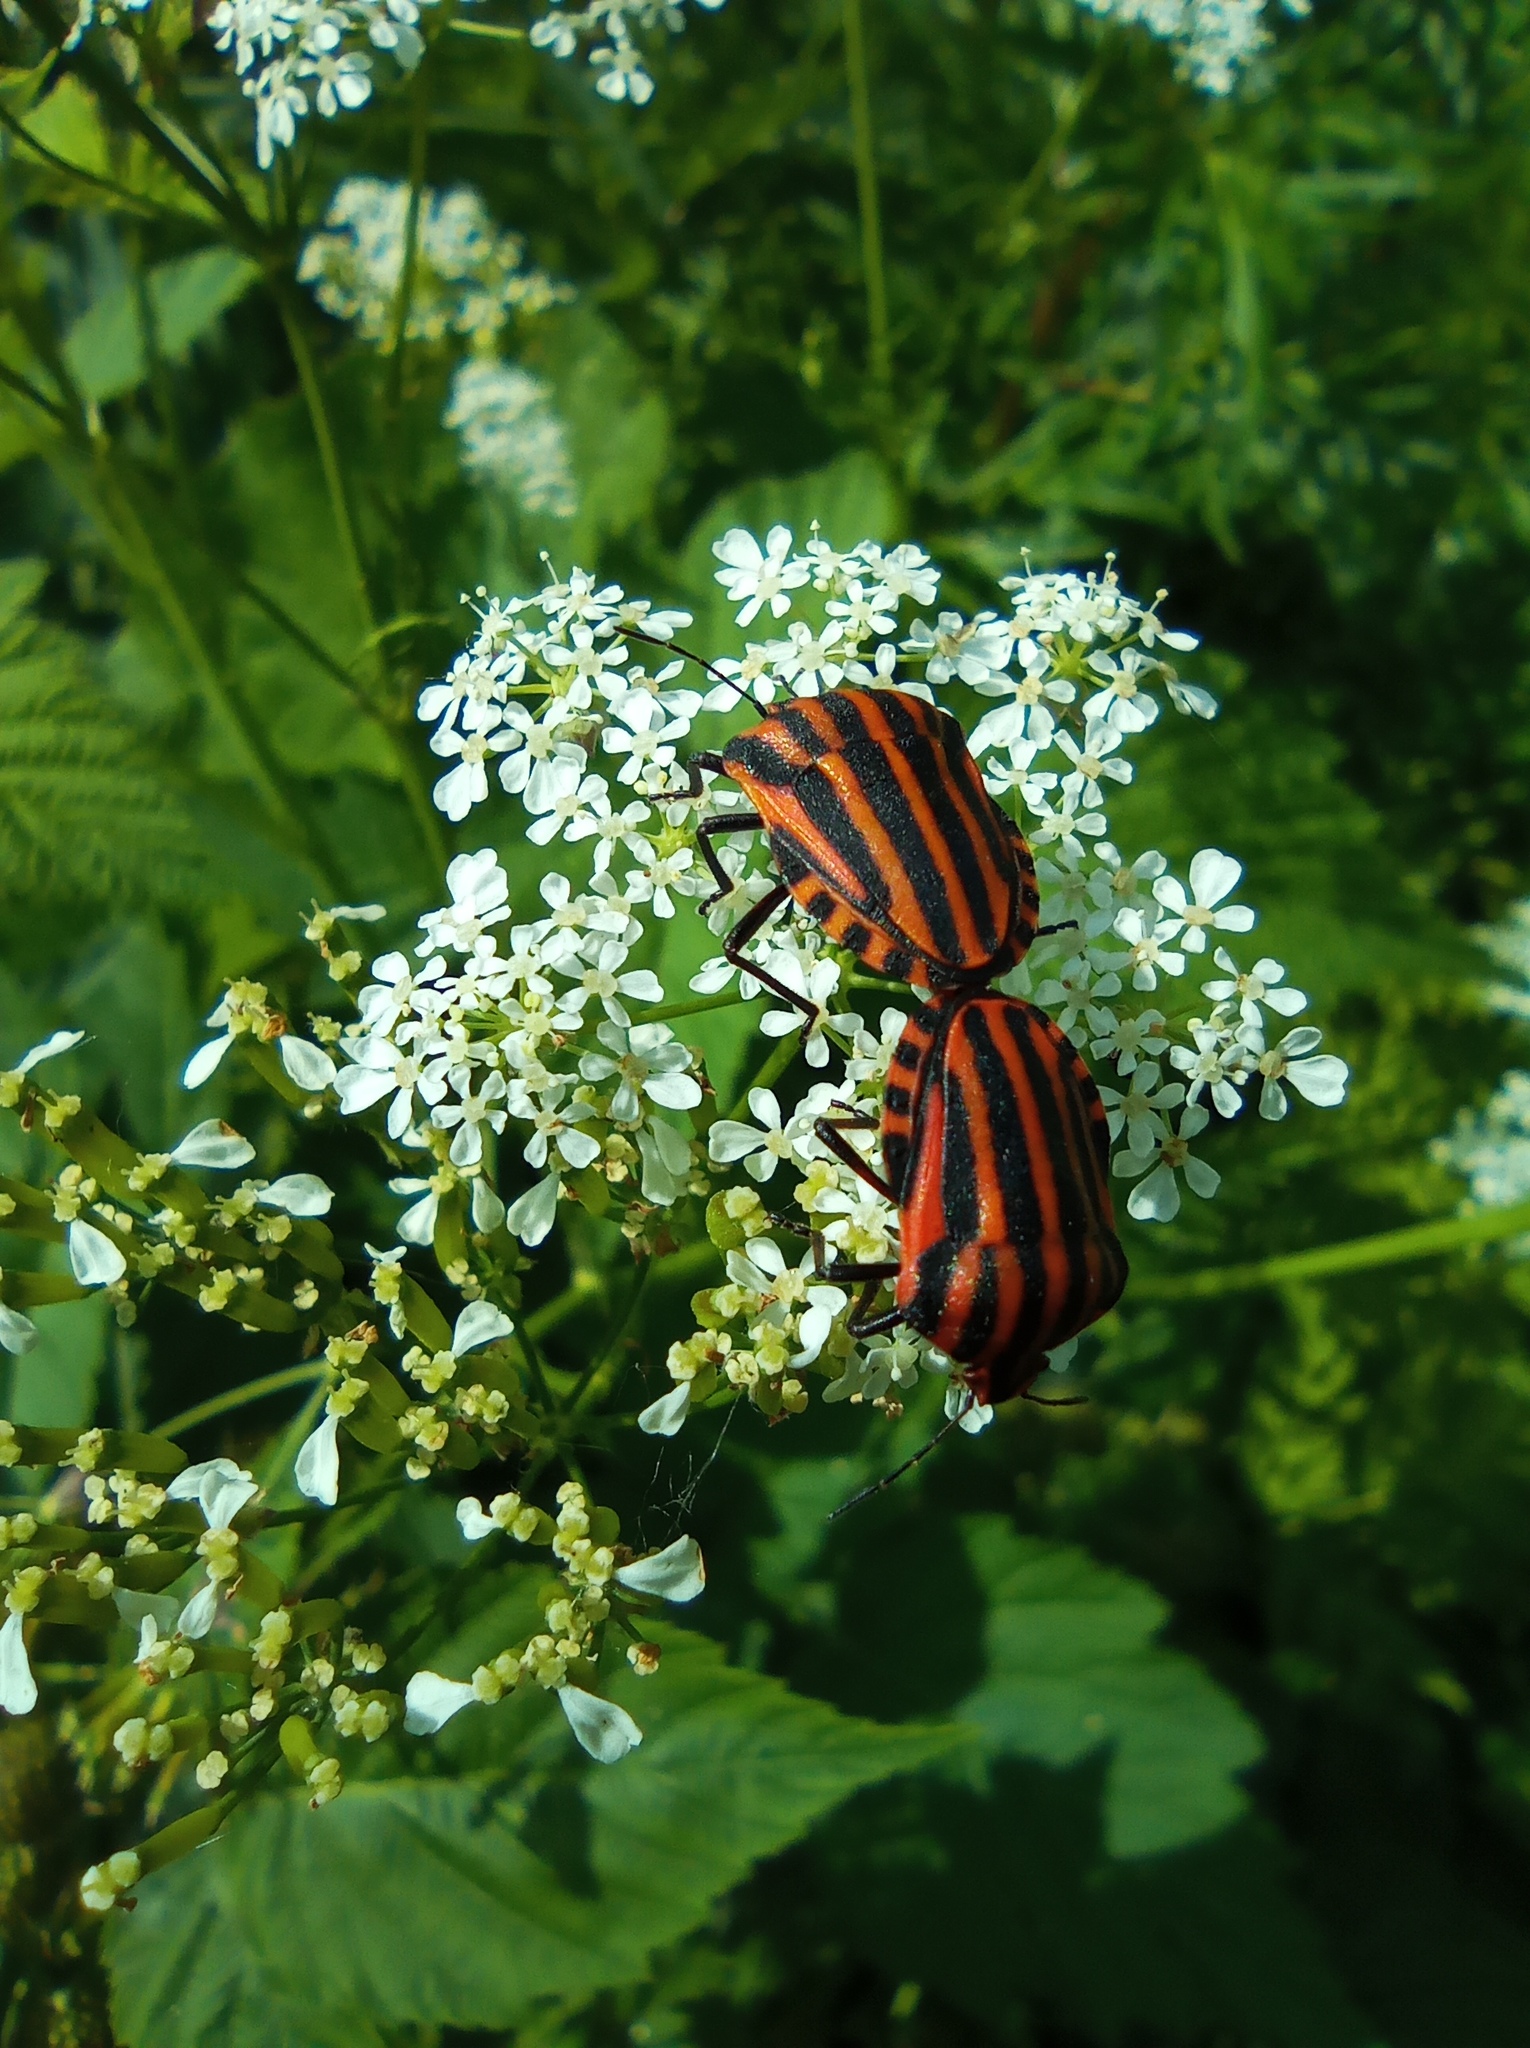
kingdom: Animalia
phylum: Arthropoda
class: Insecta
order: Hemiptera
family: Pentatomidae
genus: Graphosoma
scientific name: Graphosoma italicum
